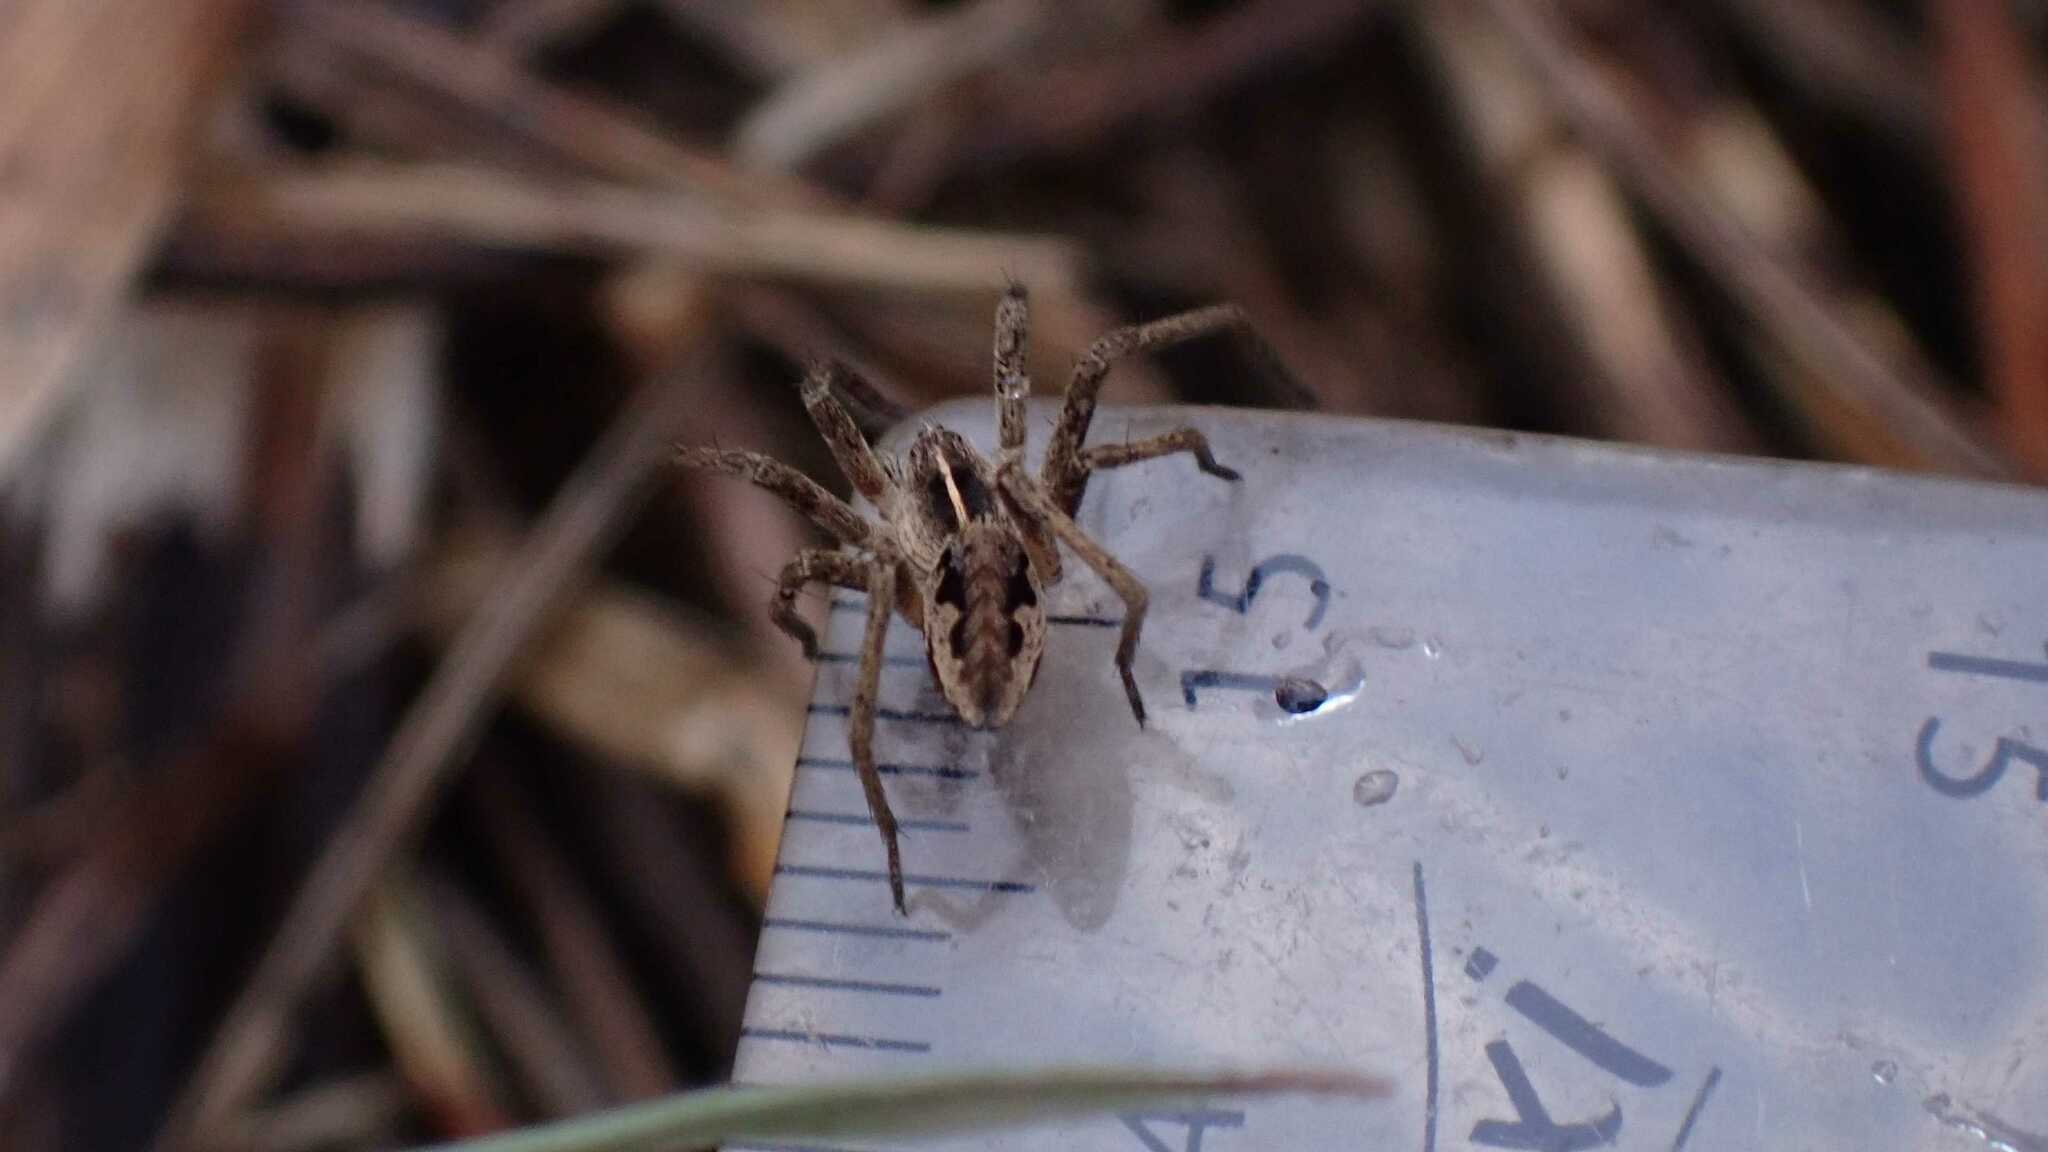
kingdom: Animalia
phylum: Arthropoda
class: Arachnida
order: Araneae
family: Pisauridae
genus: Pisaura
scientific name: Pisaura mirabilis
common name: Tent spider
